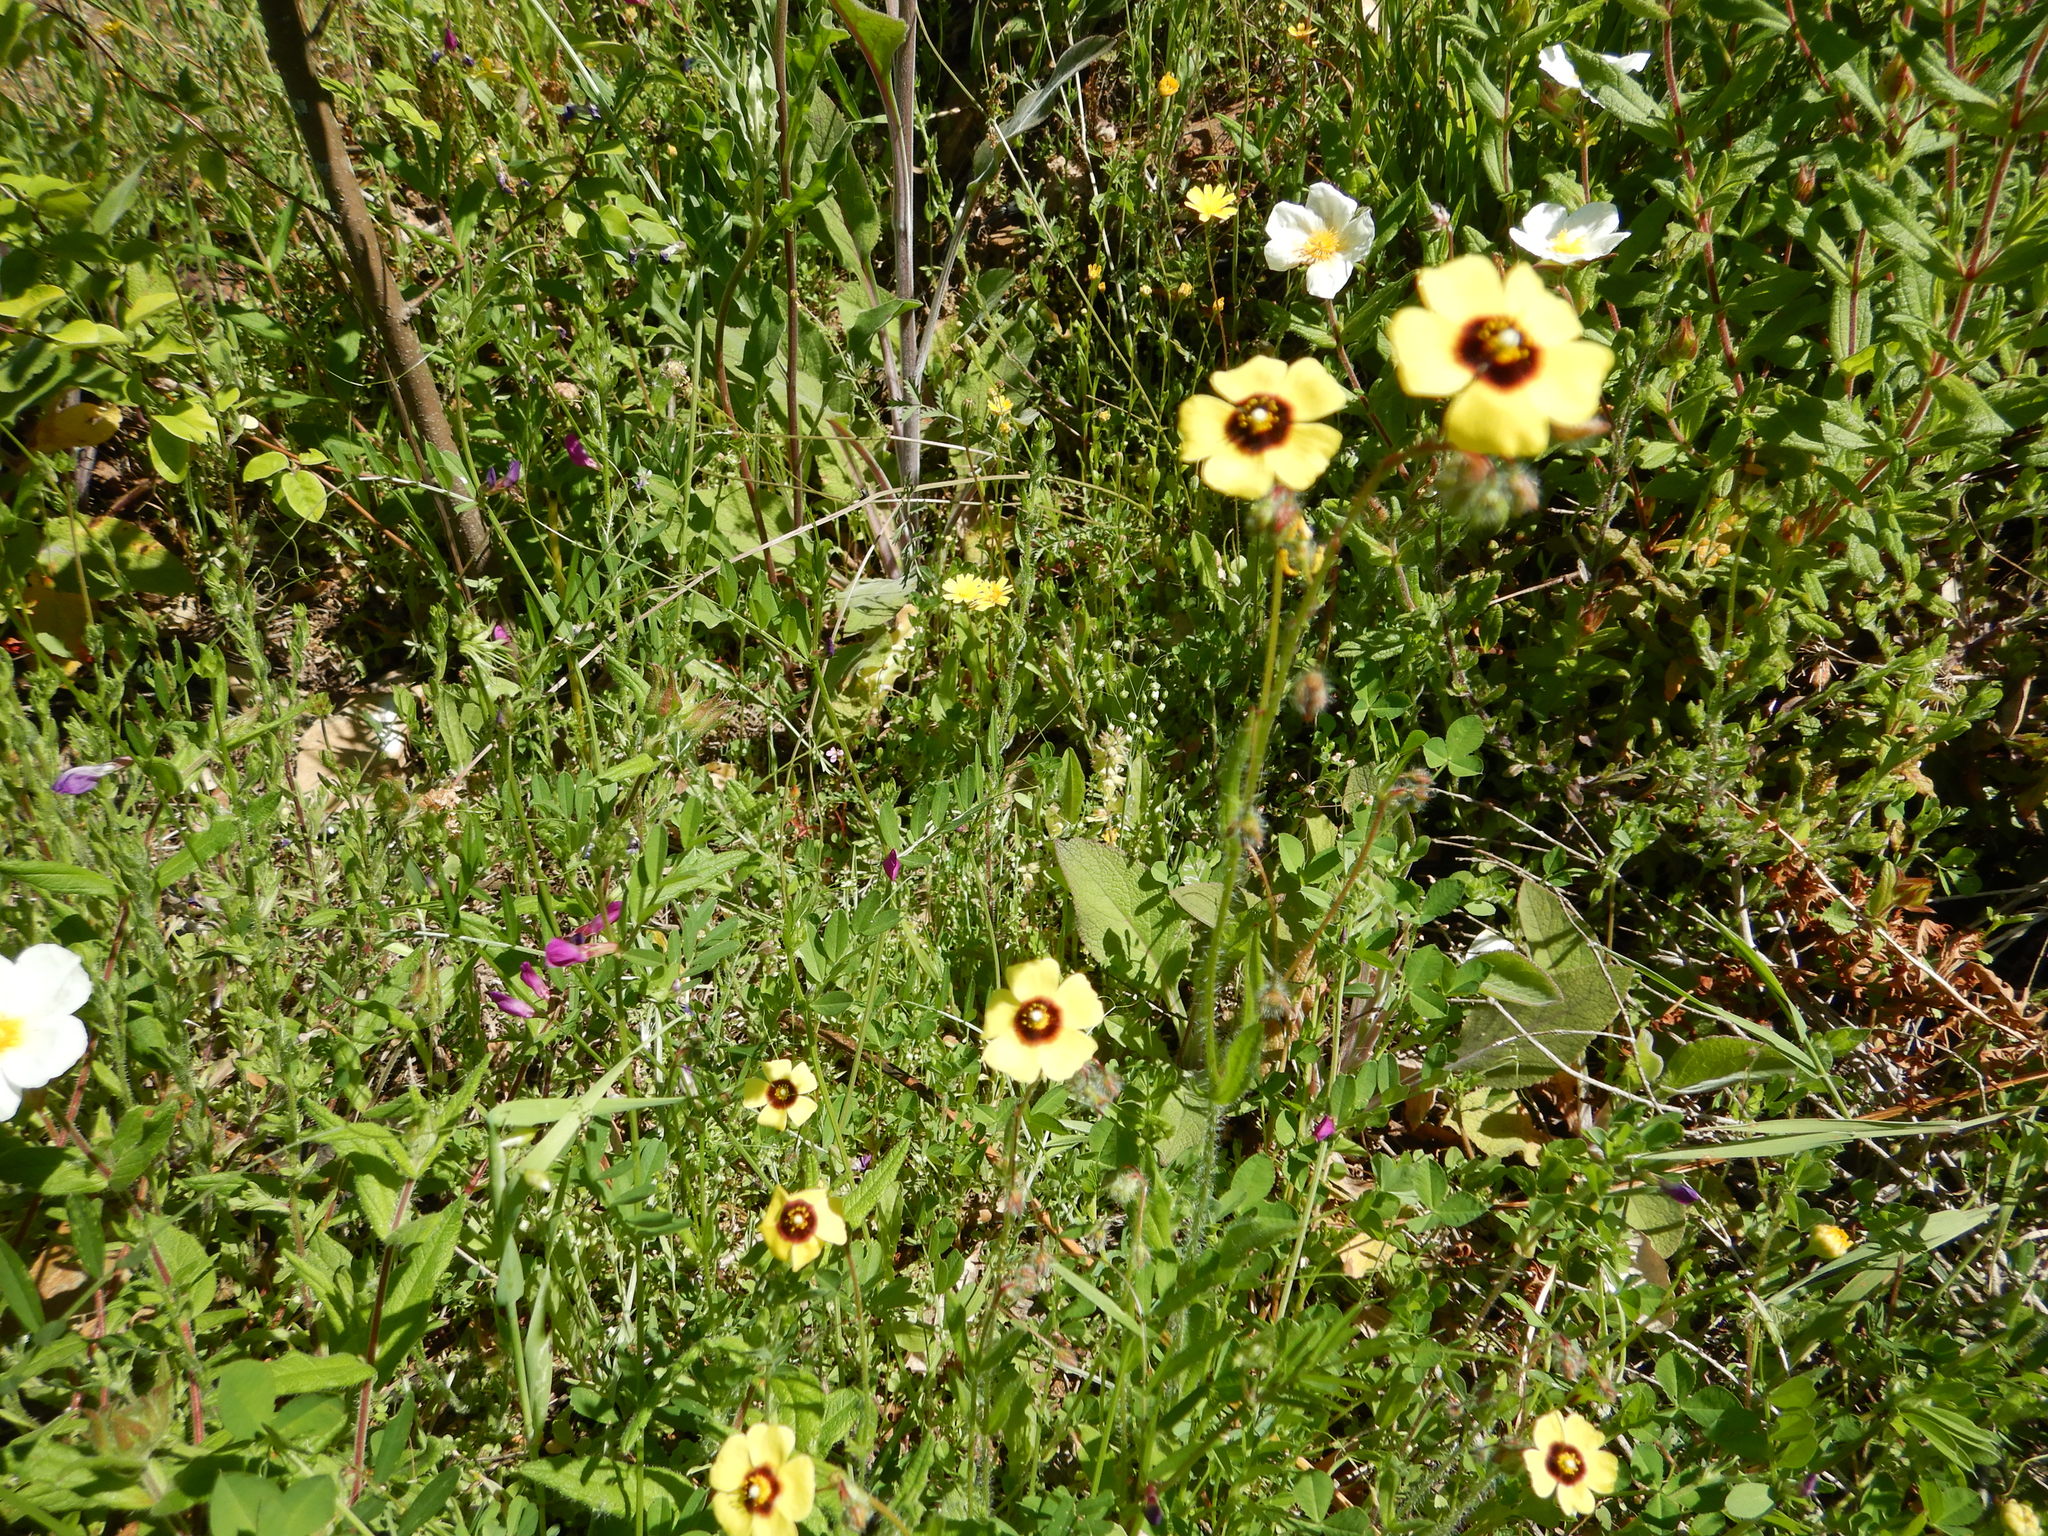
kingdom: Plantae
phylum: Tracheophyta
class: Magnoliopsida
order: Malvales
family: Cistaceae
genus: Tuberaria
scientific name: Tuberaria guttata
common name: Spotted rock-rose
